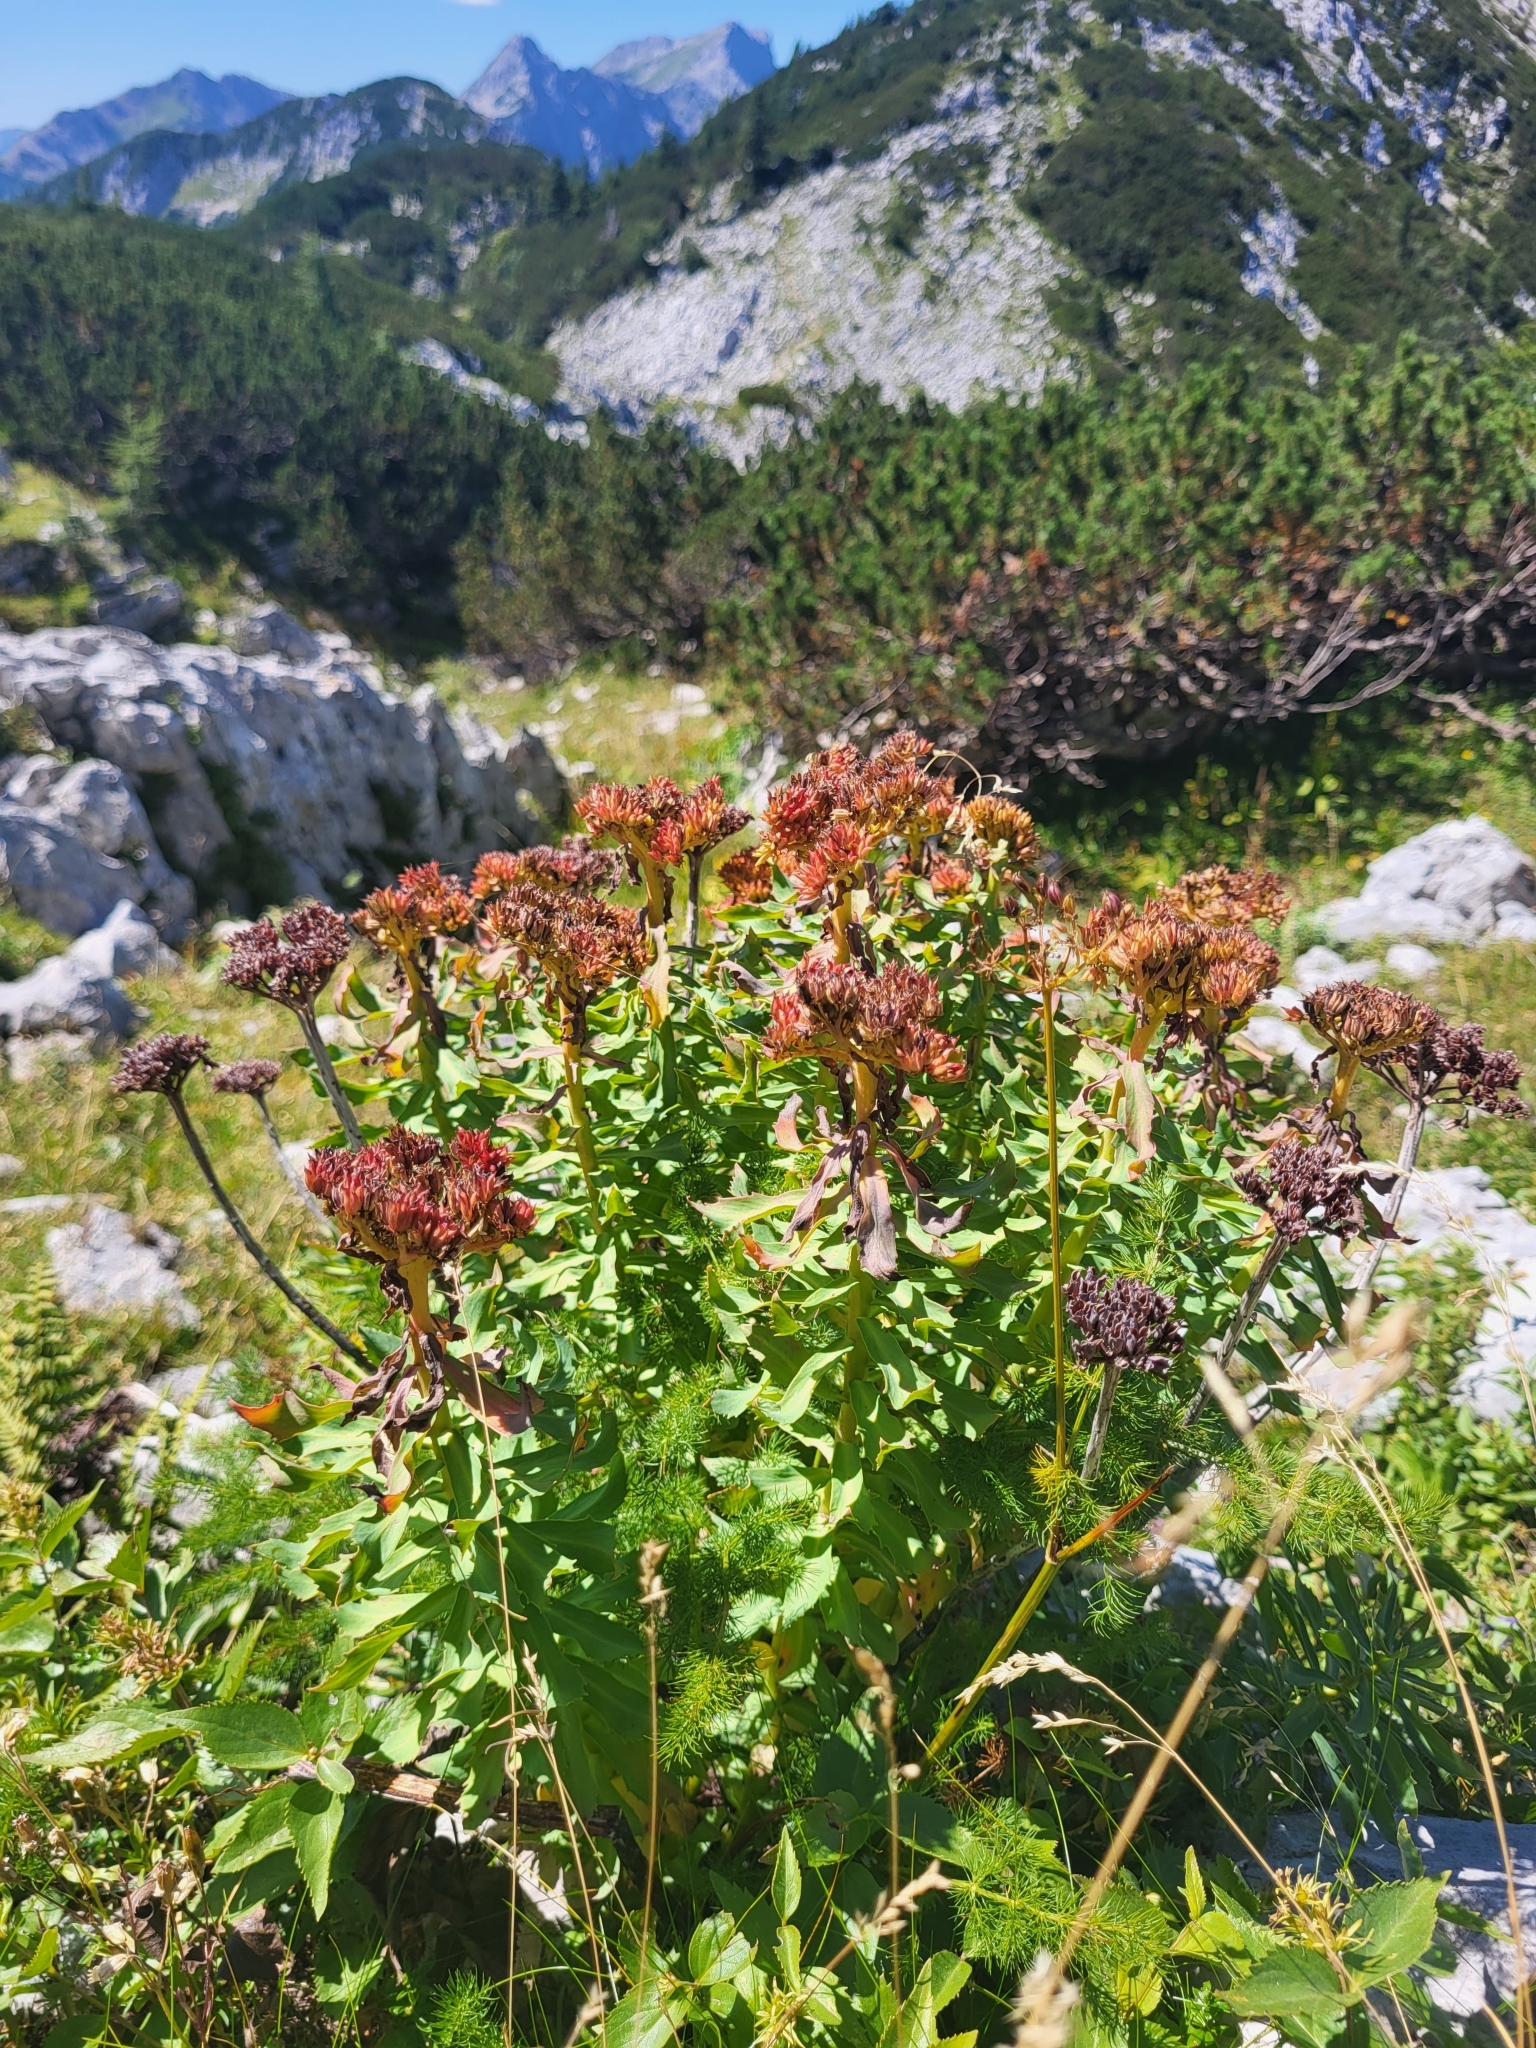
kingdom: Plantae
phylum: Tracheophyta
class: Magnoliopsida
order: Saxifragales
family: Crassulaceae
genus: Rhodiola
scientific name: Rhodiola rosea
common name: Roseroot
